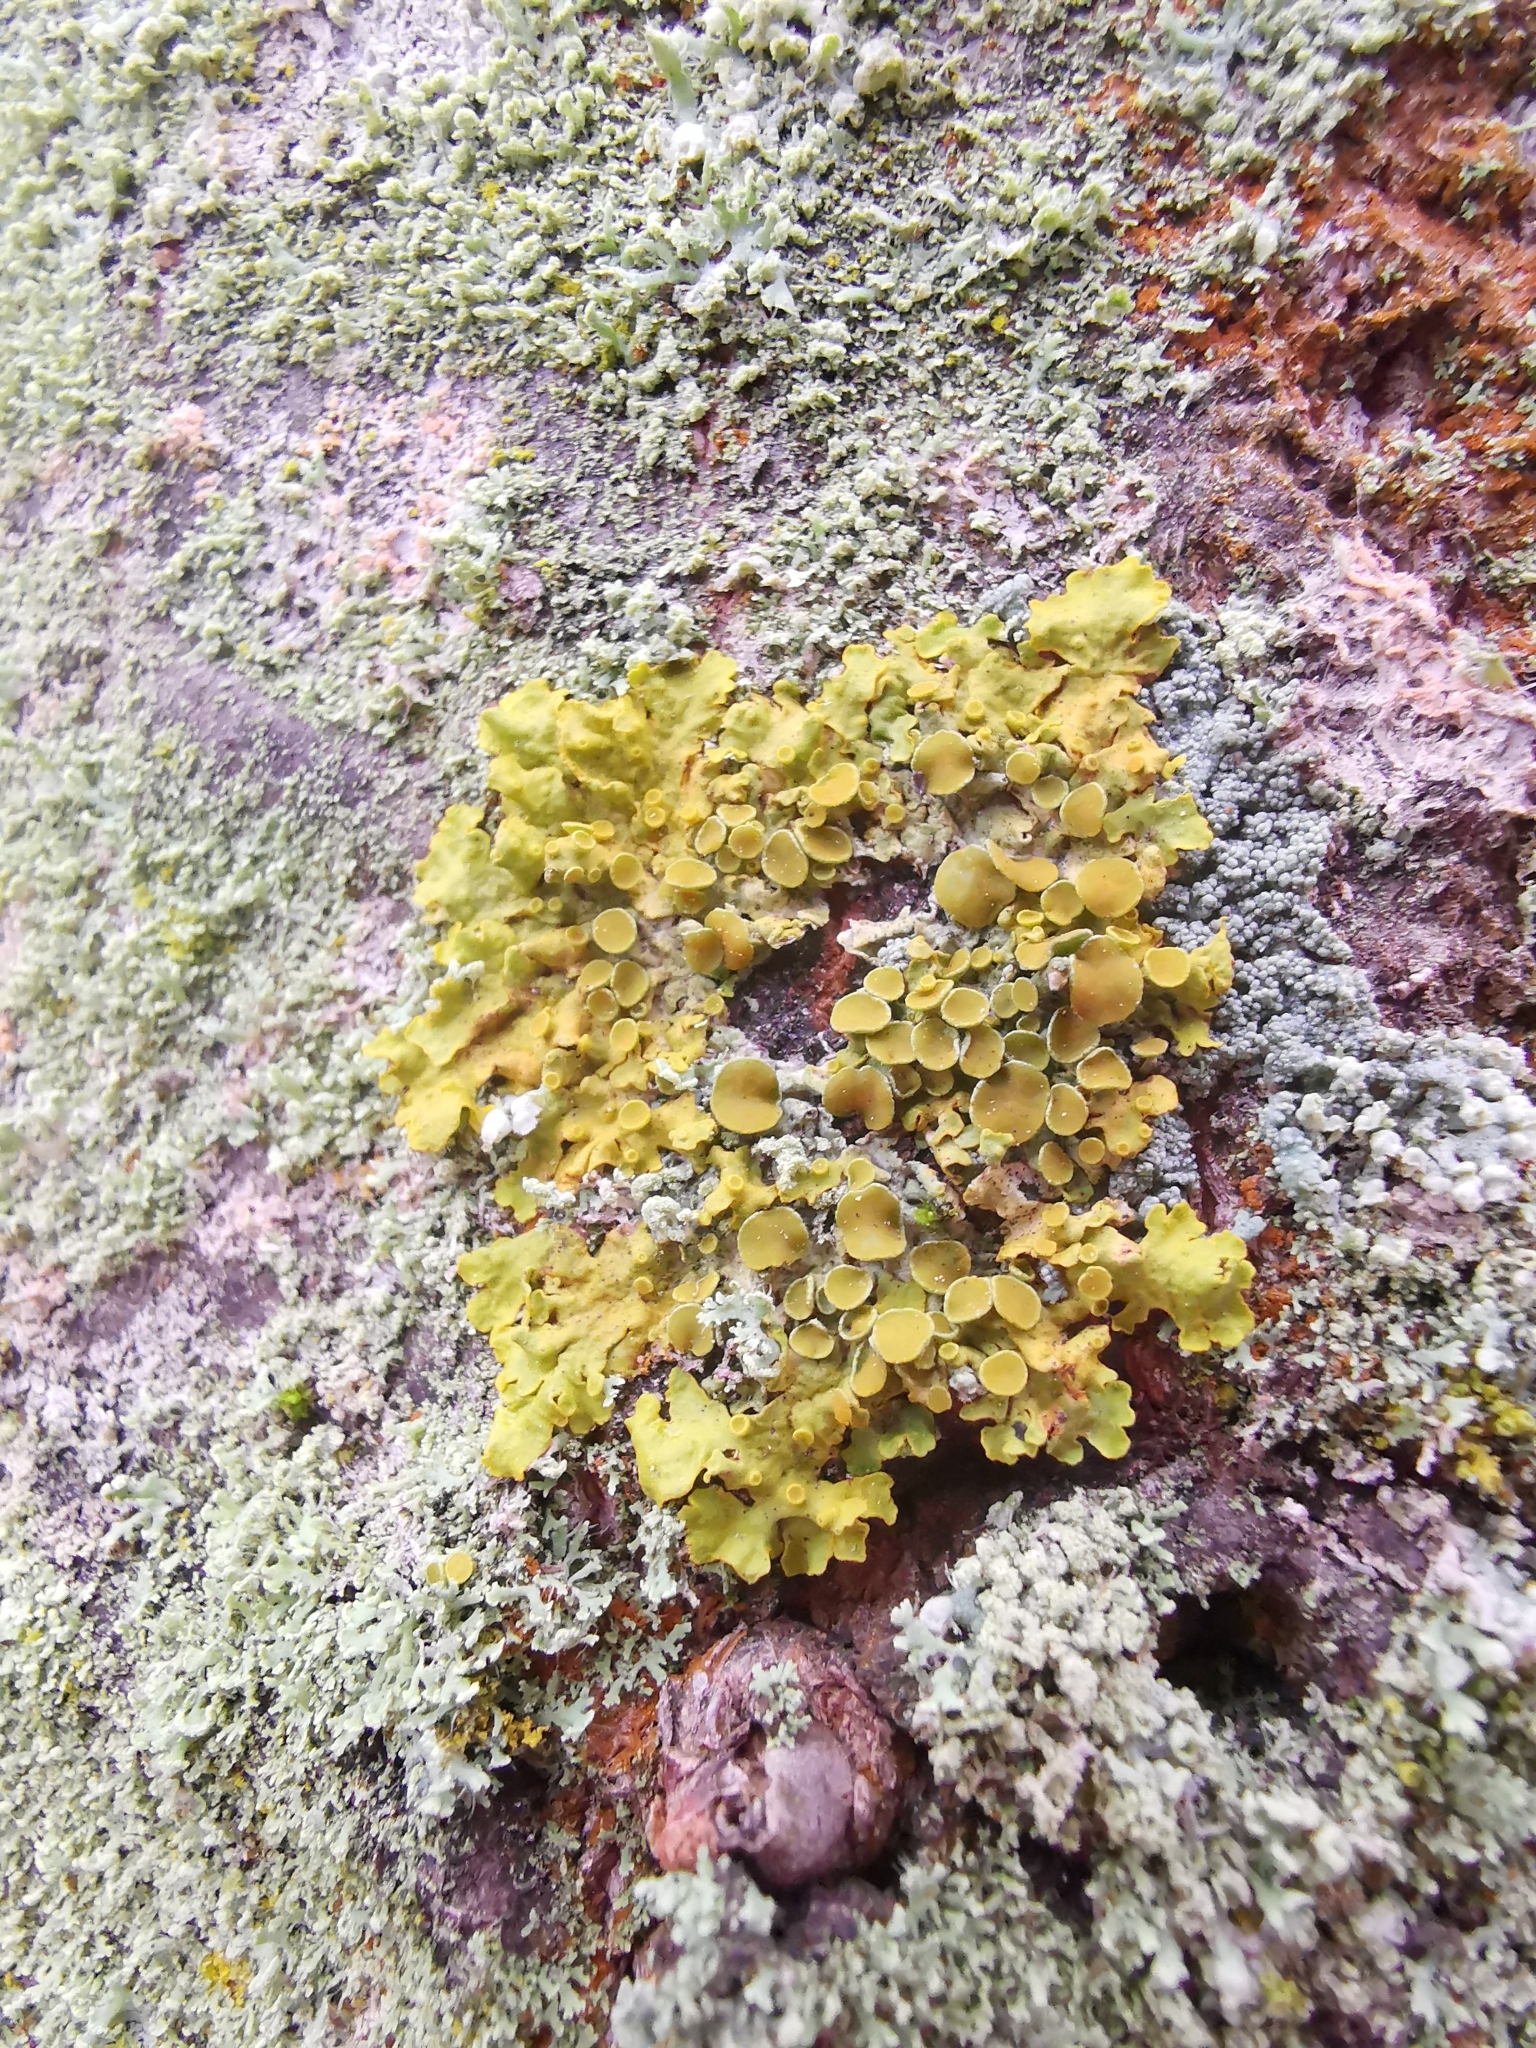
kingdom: Fungi
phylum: Ascomycota
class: Lecanoromycetes
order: Teloschistales
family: Teloschistaceae
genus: Xanthoria
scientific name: Xanthoria parietina
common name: Common orange lichen
